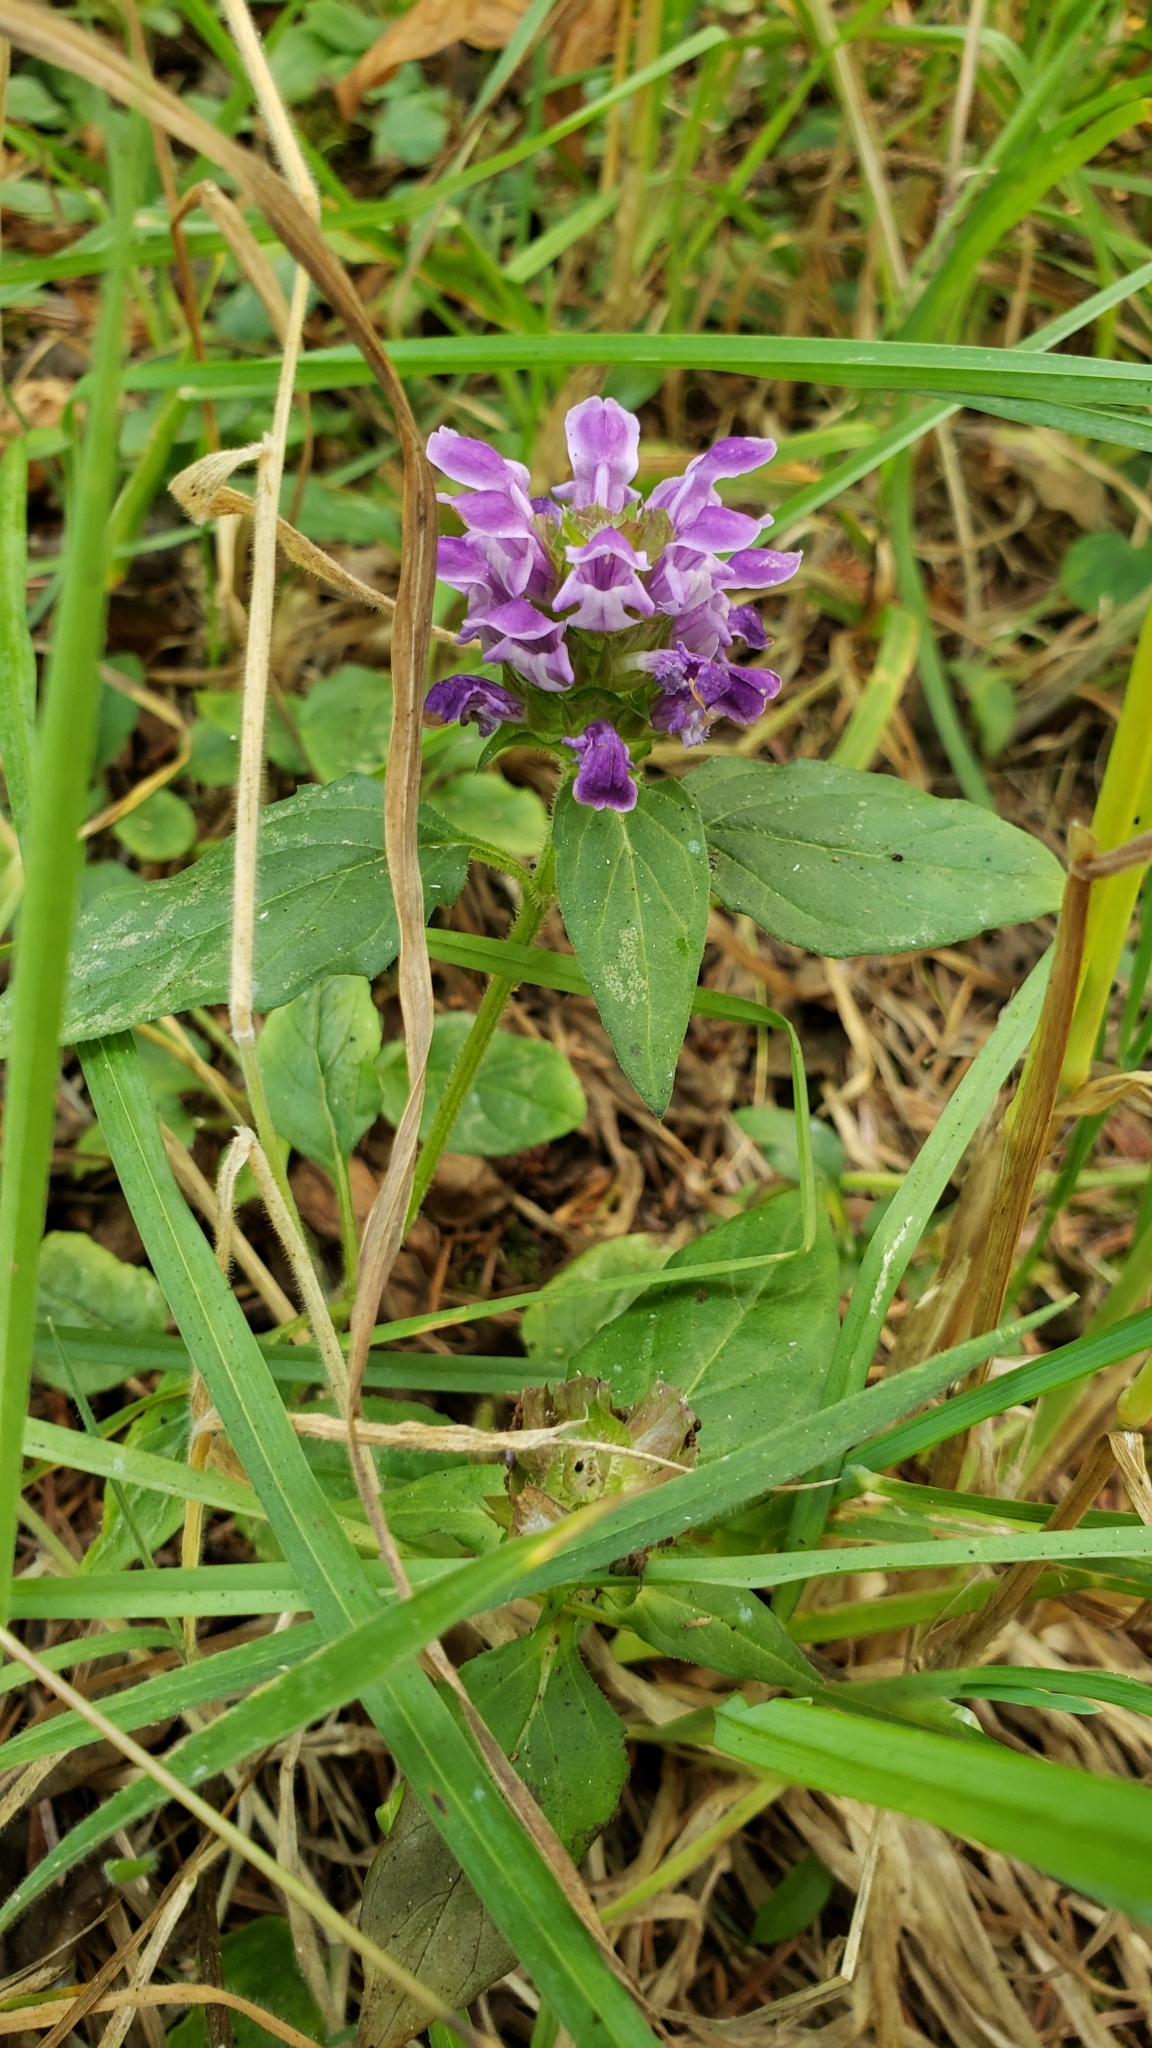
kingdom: Plantae
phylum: Tracheophyta
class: Magnoliopsida
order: Lamiales
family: Lamiaceae
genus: Prunella
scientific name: Prunella vulgaris
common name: Heal-all
